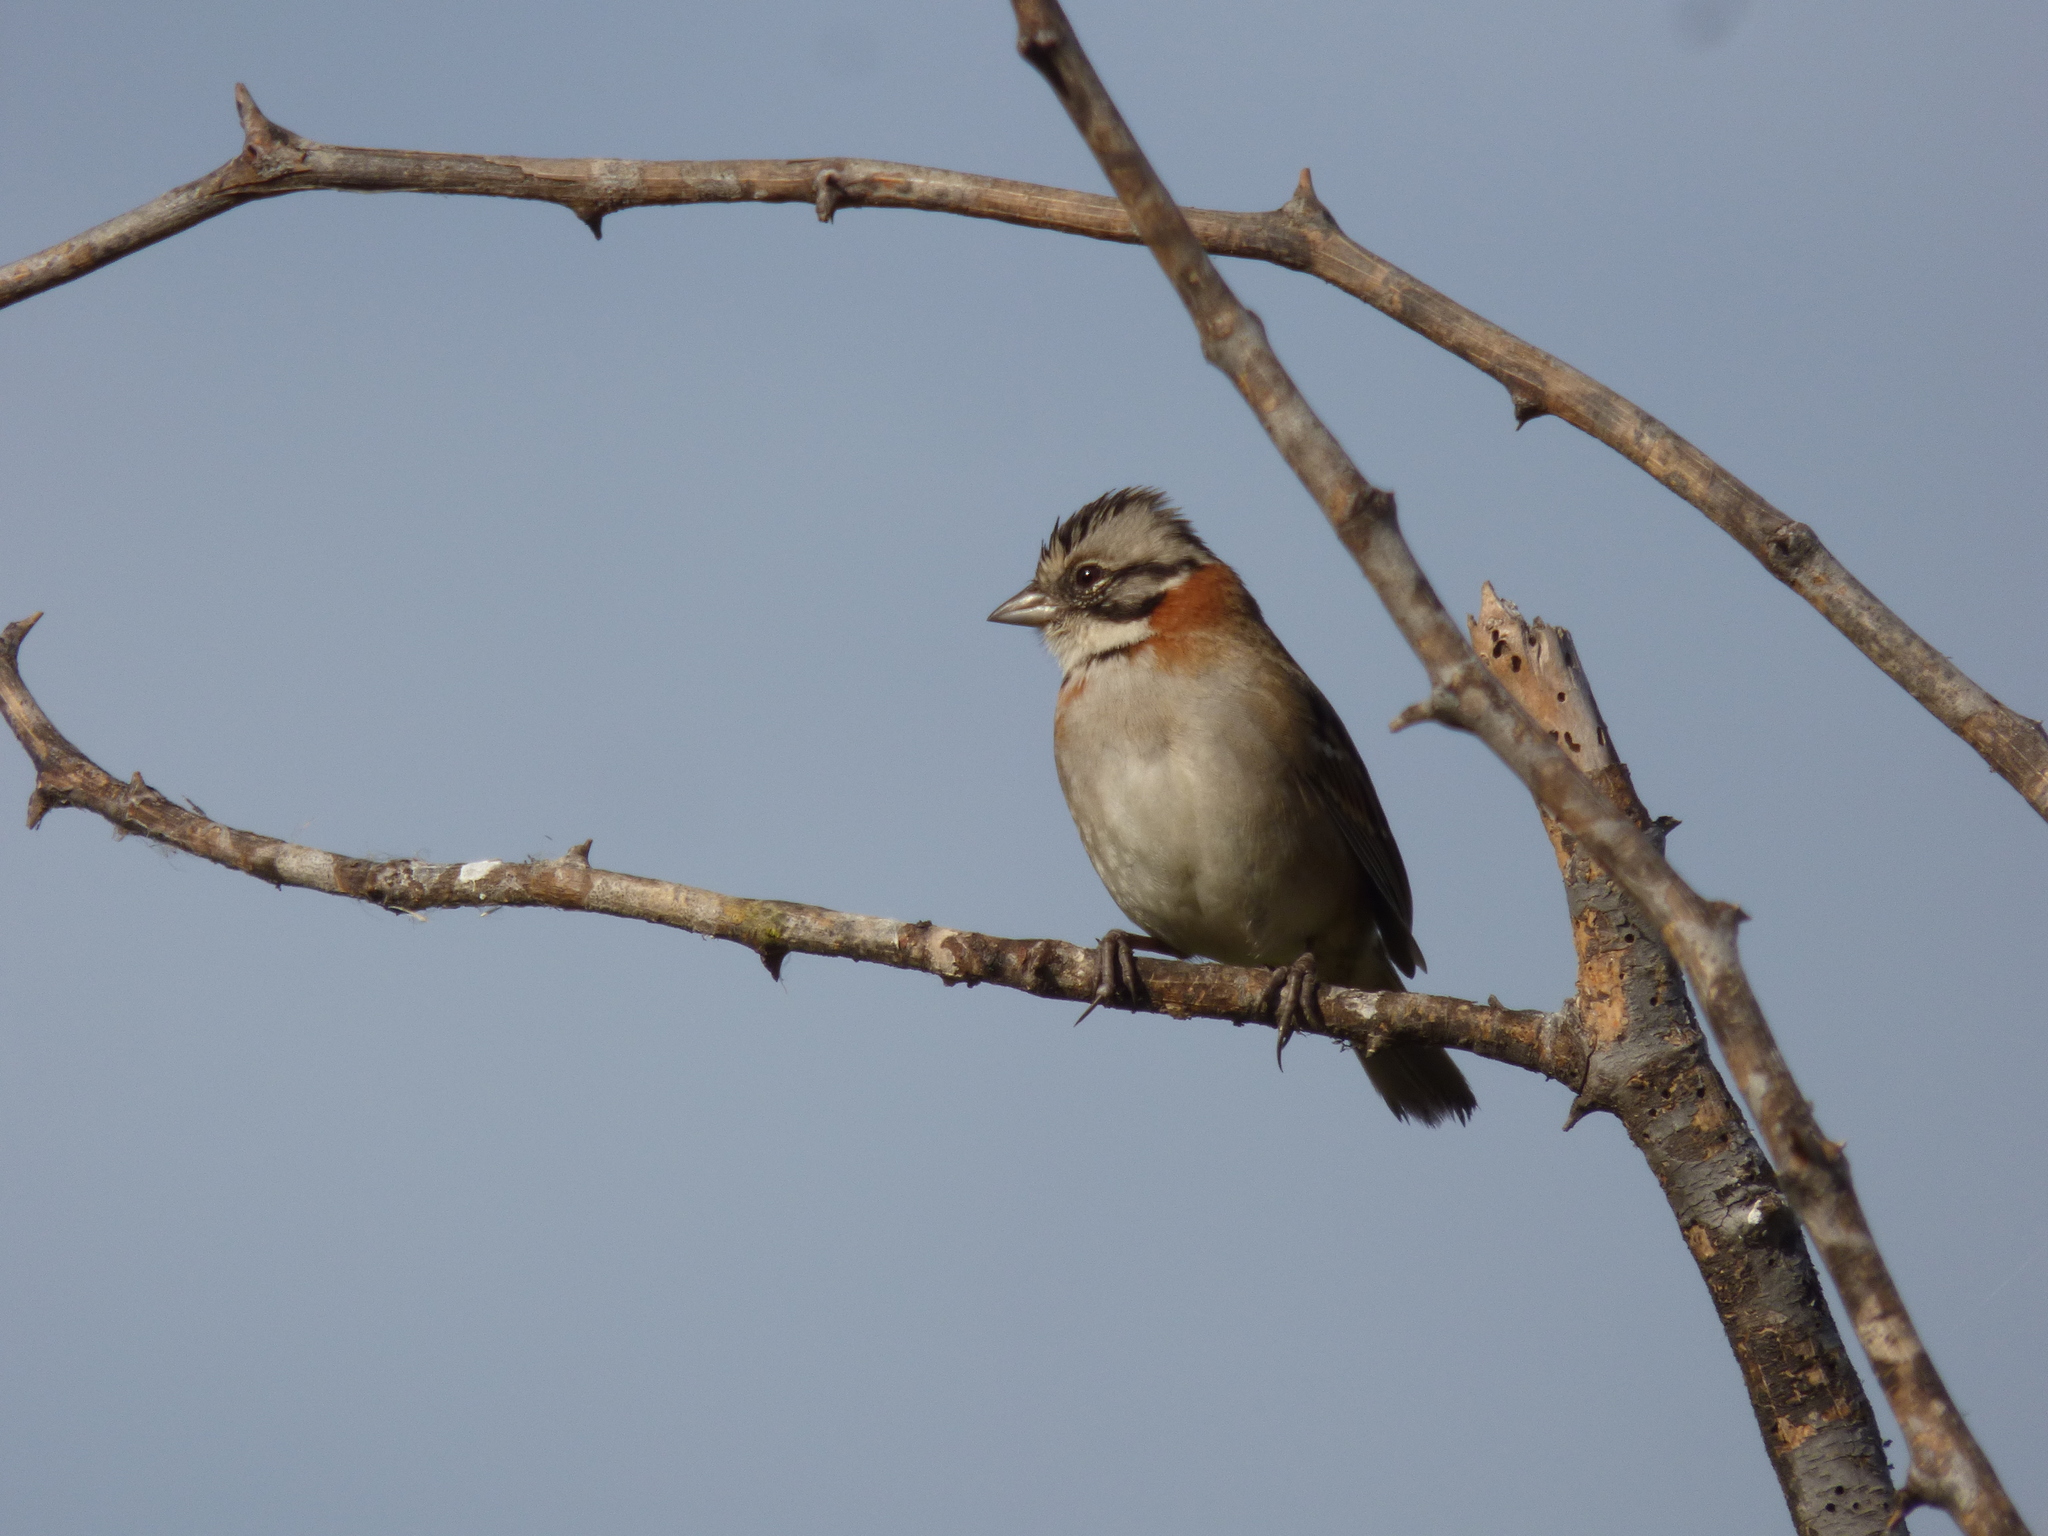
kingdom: Animalia
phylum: Chordata
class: Aves
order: Passeriformes
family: Passerellidae
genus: Zonotrichia
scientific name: Zonotrichia capensis
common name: Rufous-collared sparrow
